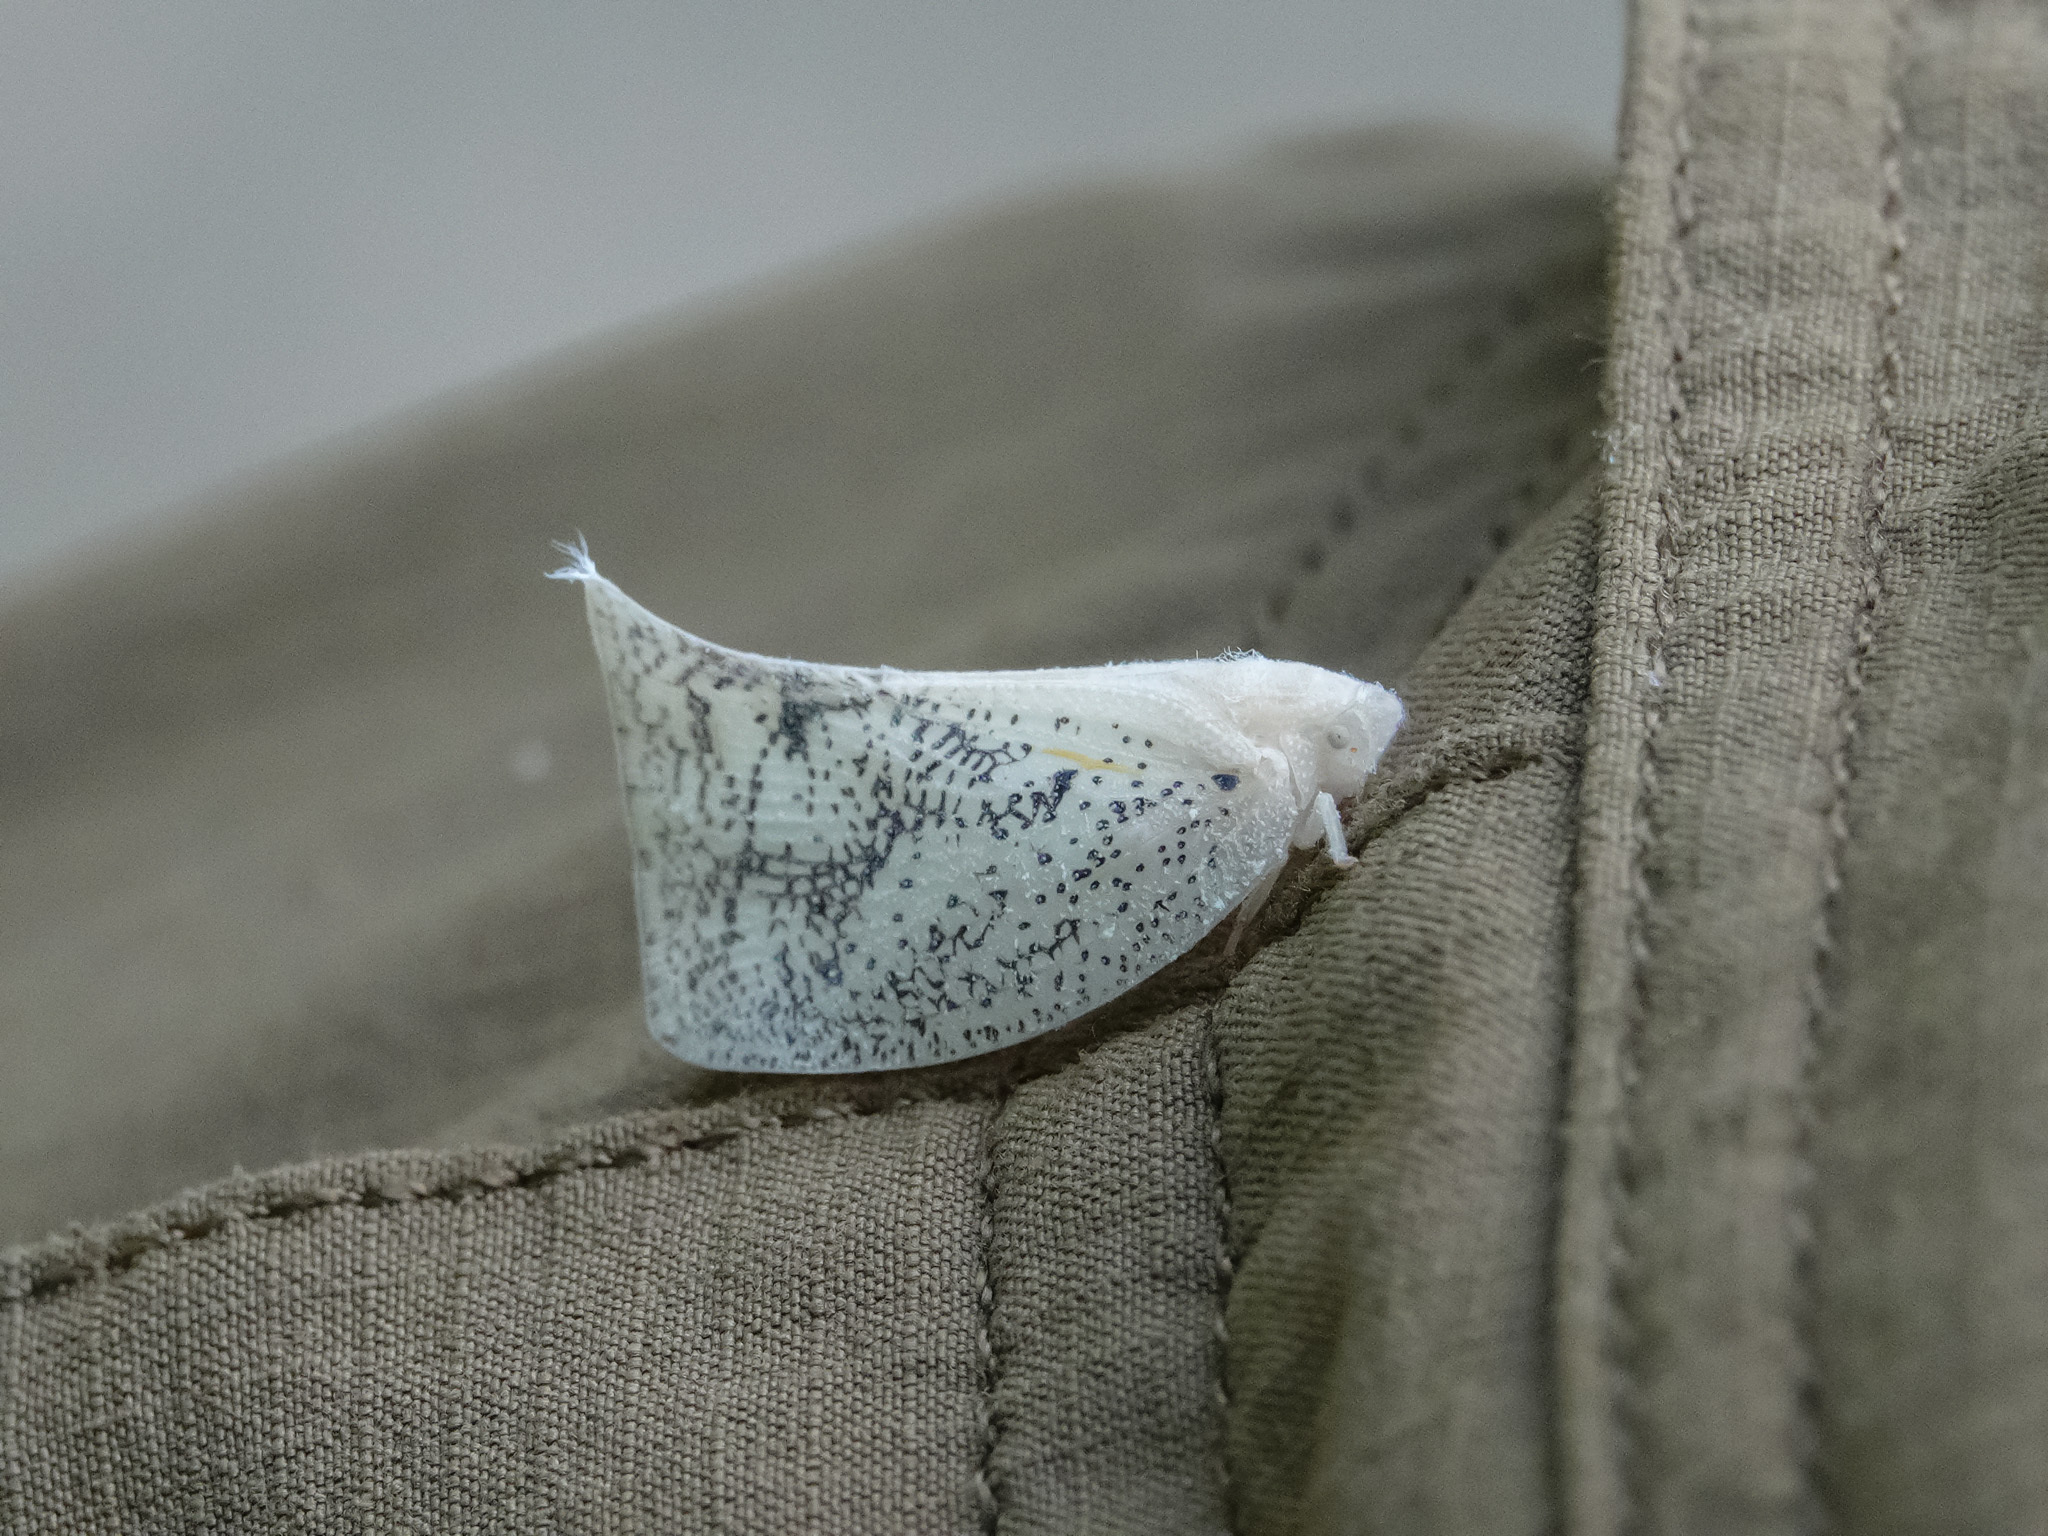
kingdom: Animalia
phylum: Arthropoda
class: Insecta
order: Hemiptera
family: Flatidae
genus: Lawana
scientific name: Lawana conspersa
